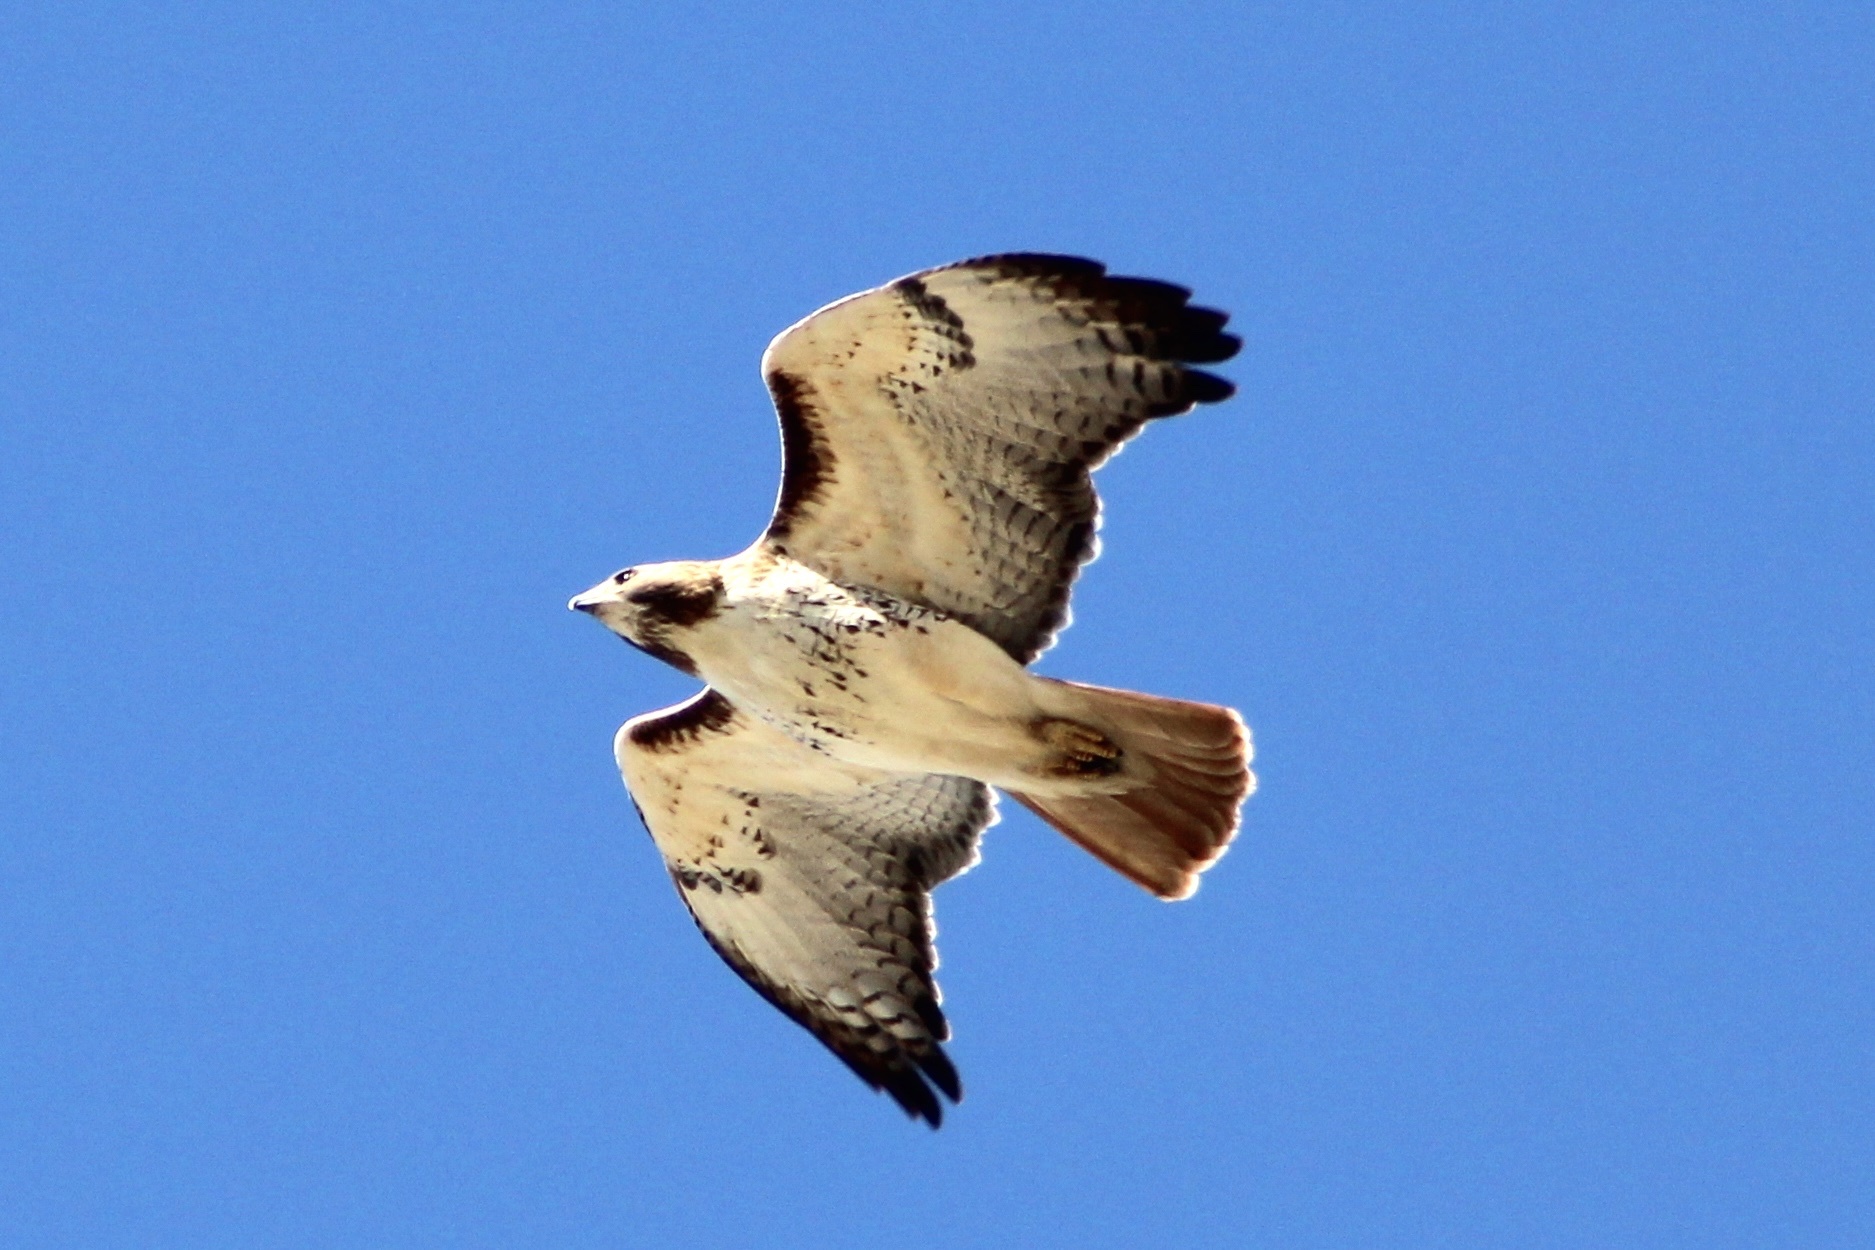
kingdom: Animalia
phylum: Chordata
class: Aves
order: Accipitriformes
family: Accipitridae
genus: Buteo
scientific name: Buteo jamaicensis
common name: Red-tailed hawk
